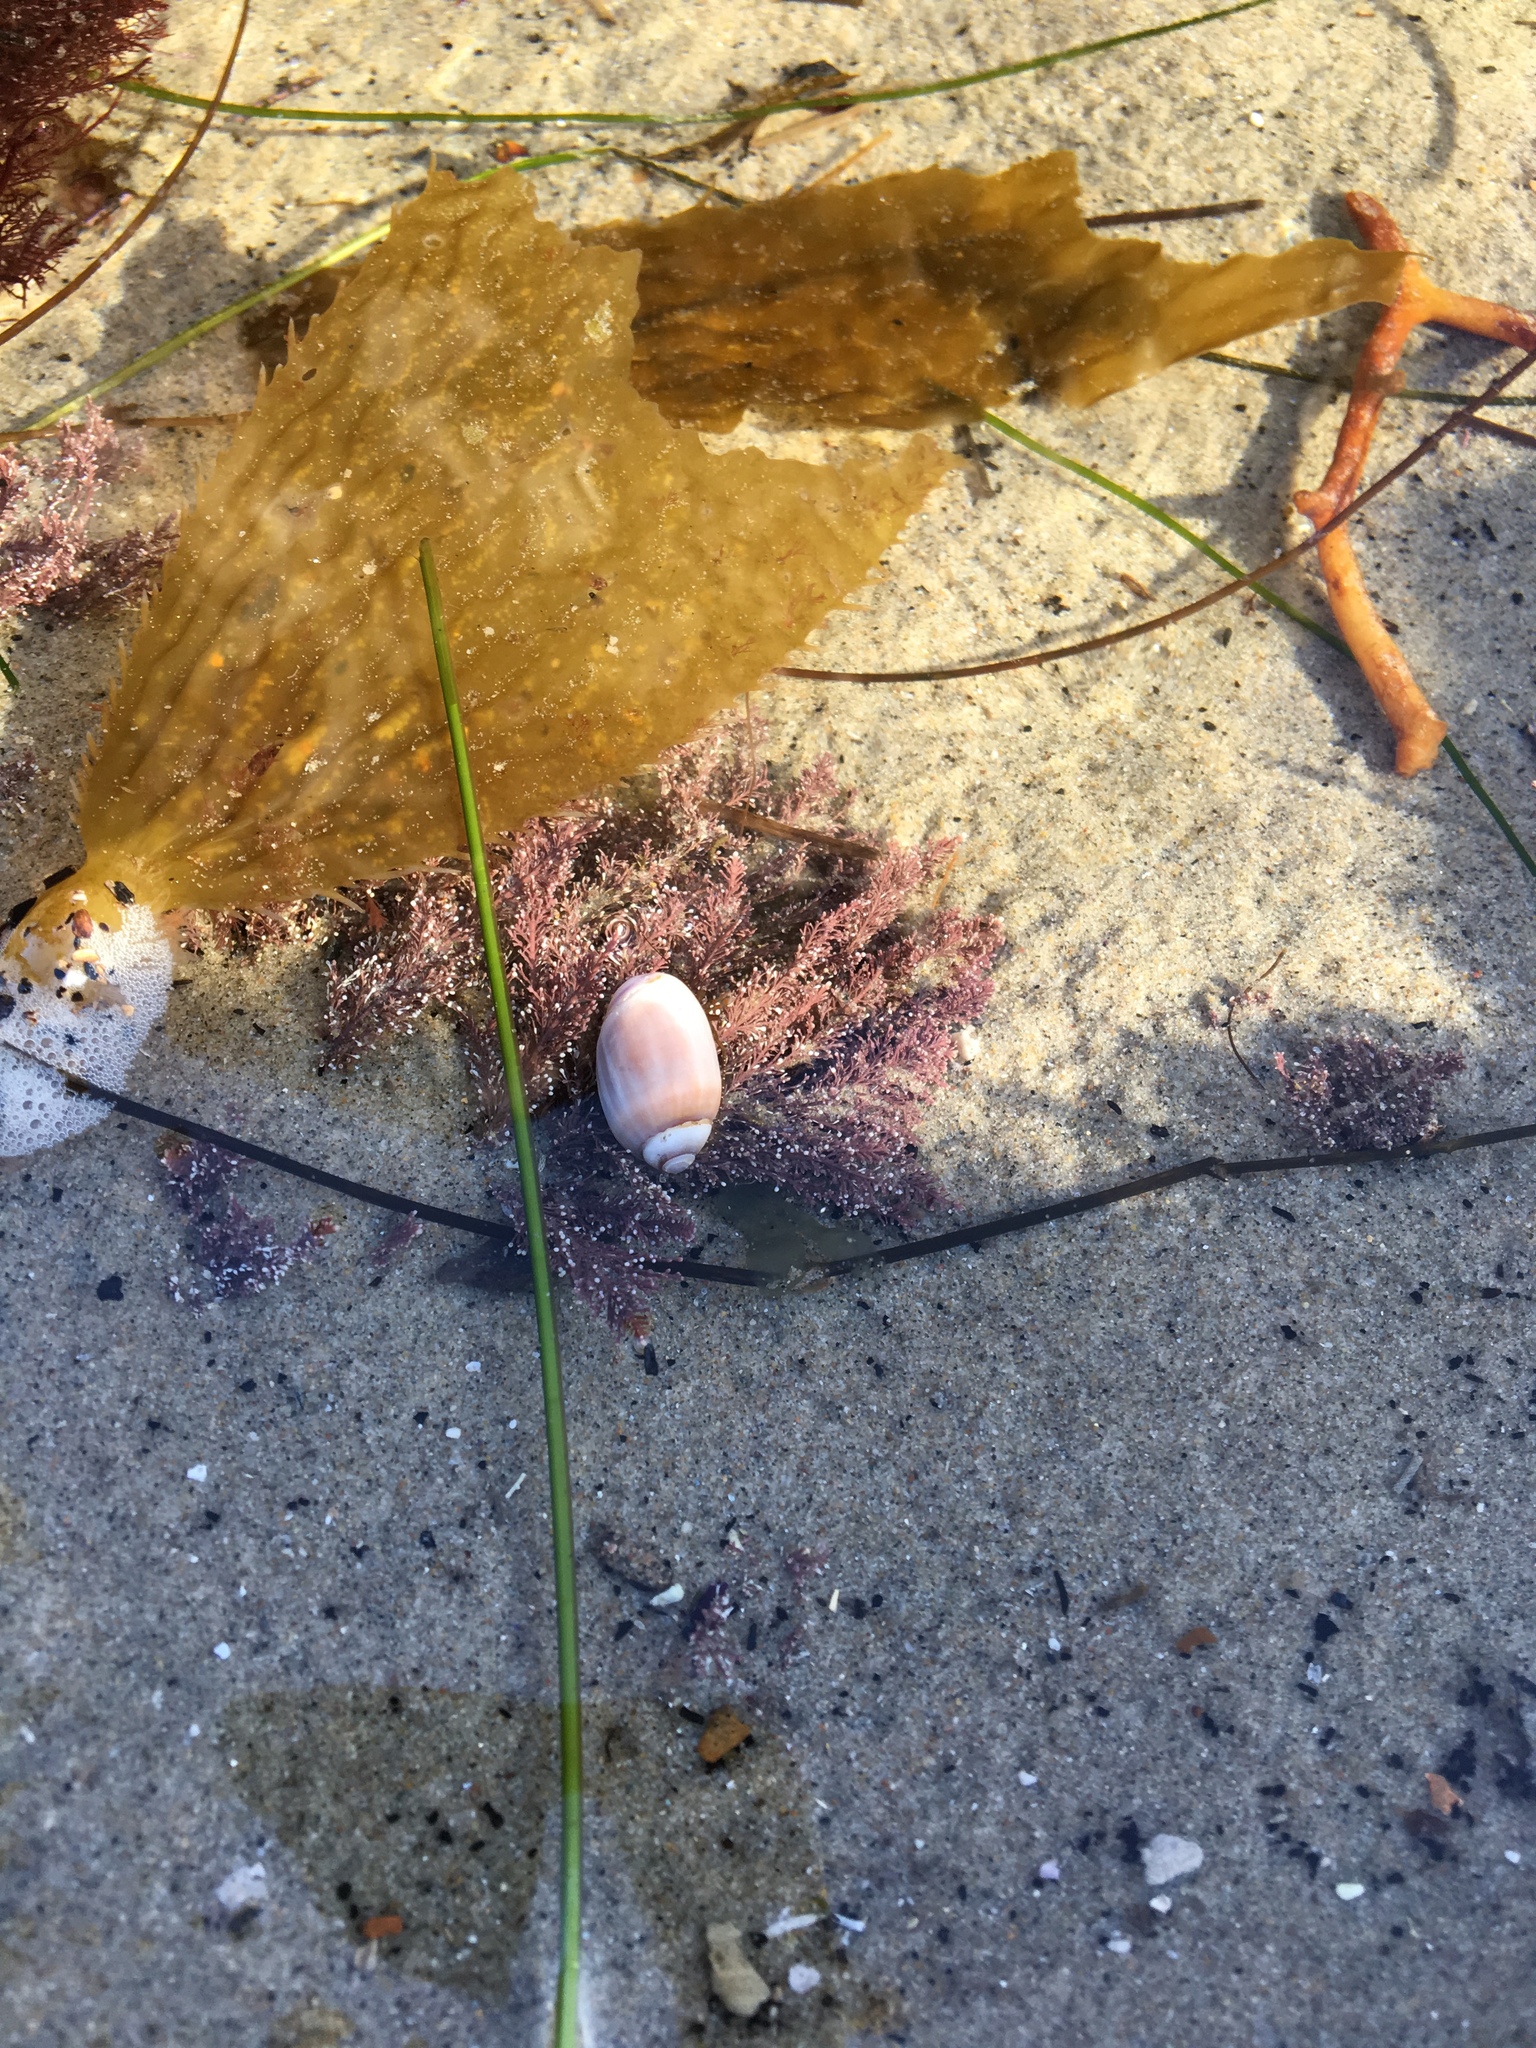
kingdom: Animalia
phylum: Mollusca
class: Gastropoda
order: Neogastropoda
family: Olividae
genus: Callianax
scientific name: Callianax biplicata
